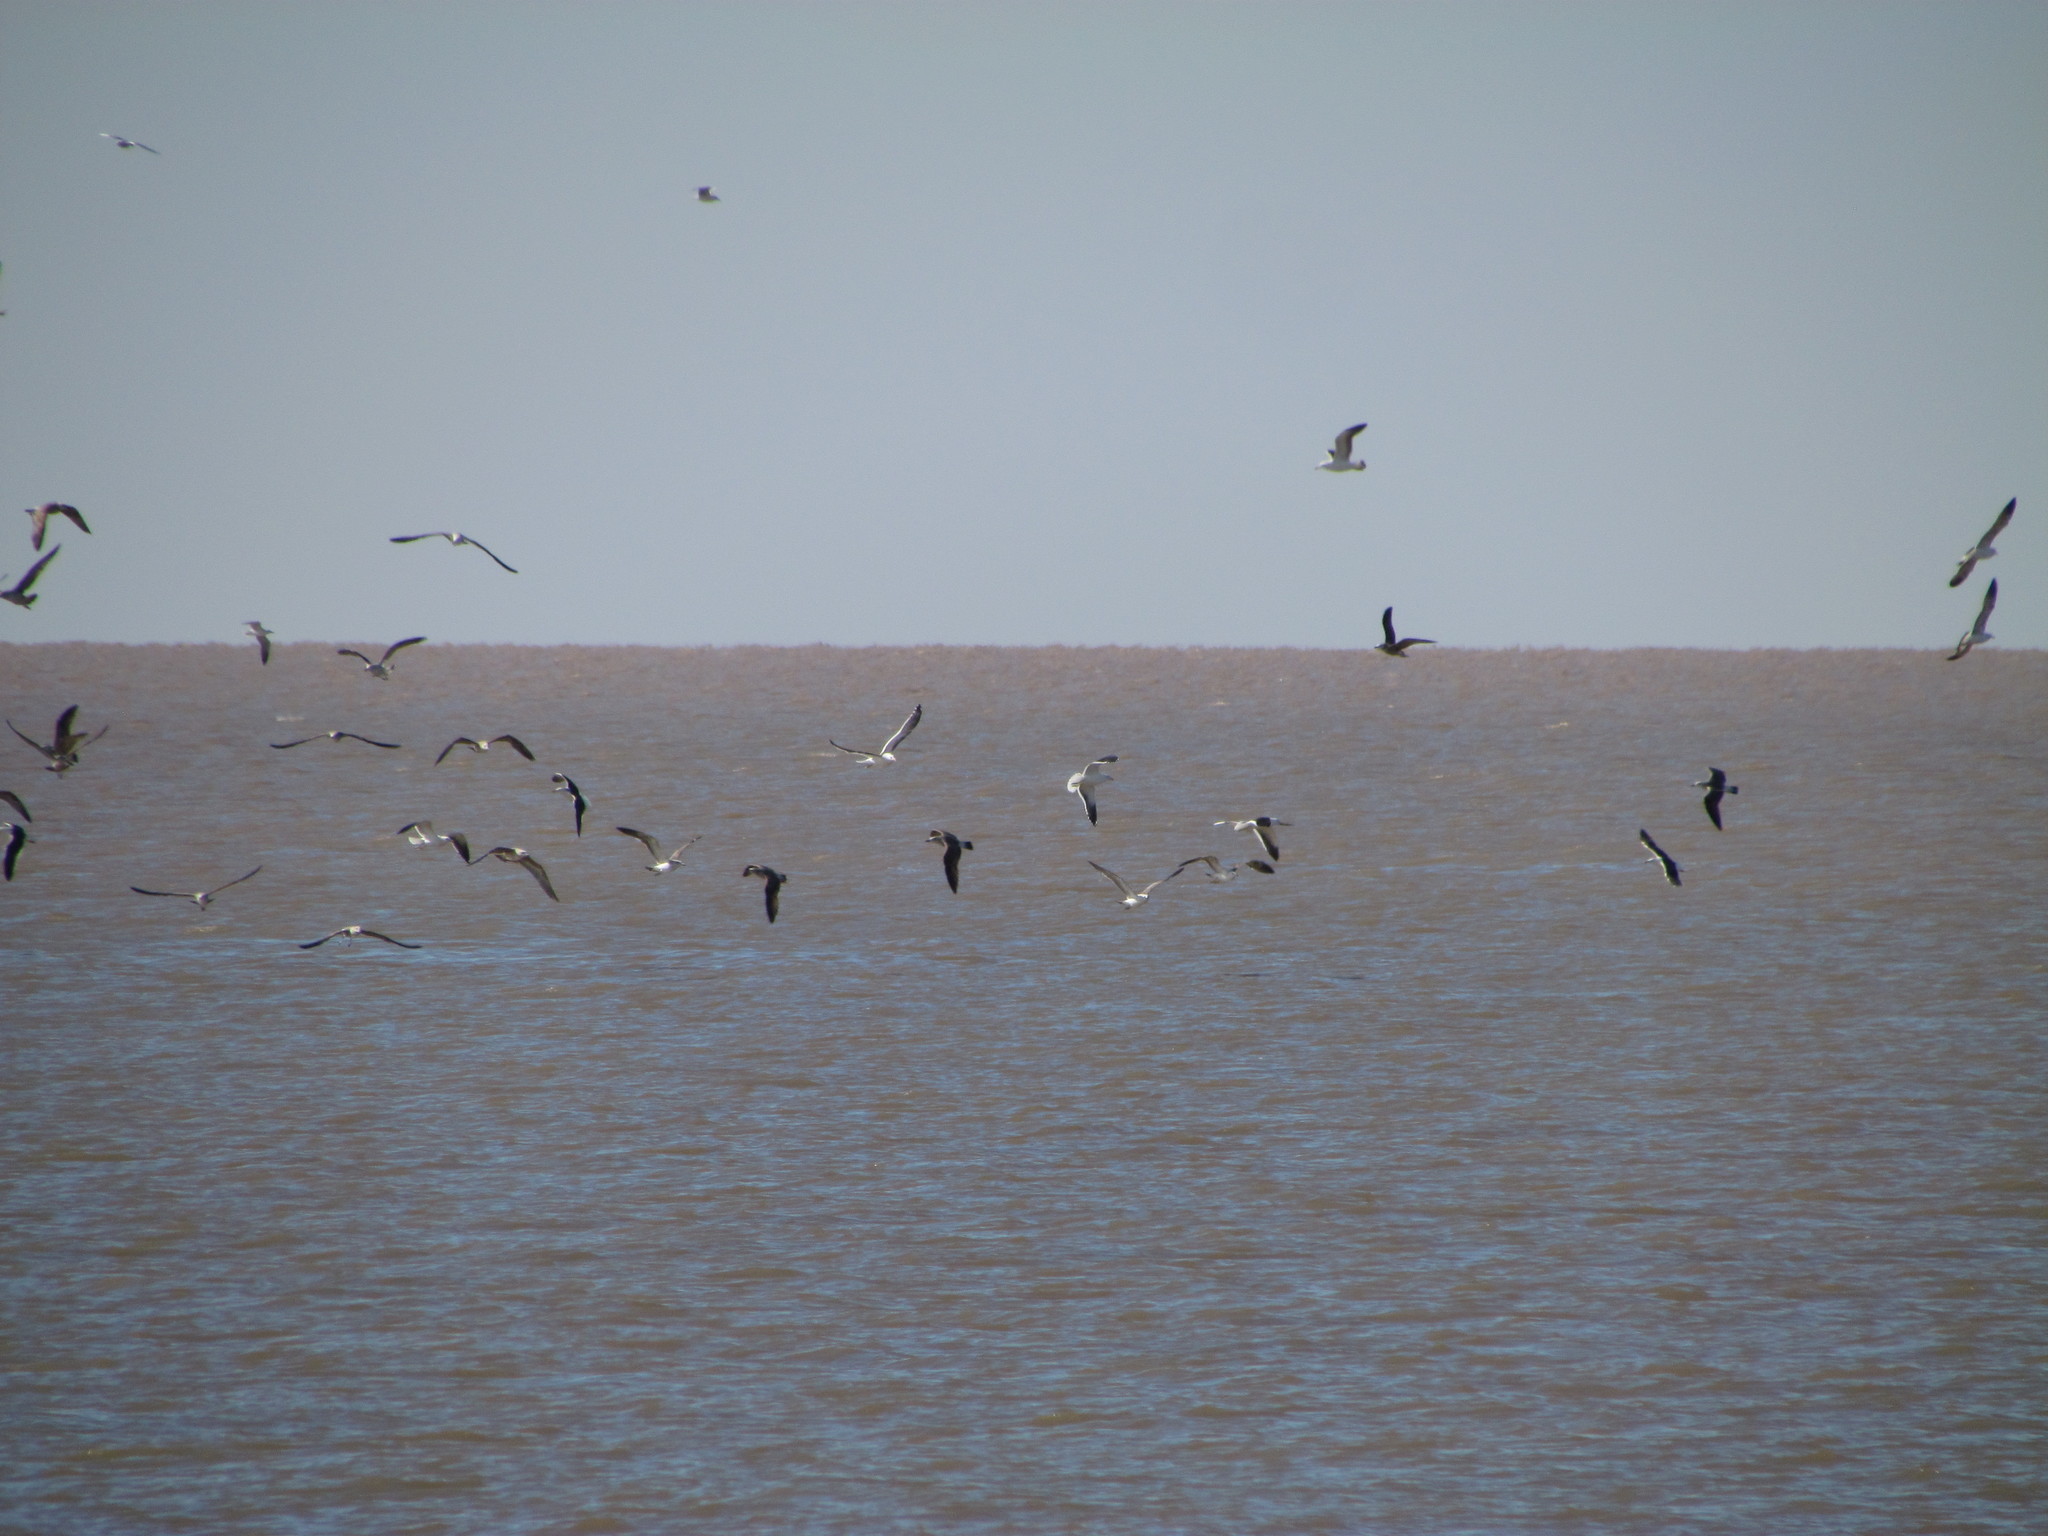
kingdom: Animalia
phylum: Chordata
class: Aves
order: Charadriiformes
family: Laridae
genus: Larus
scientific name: Larus dominicanus
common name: Kelp gull
